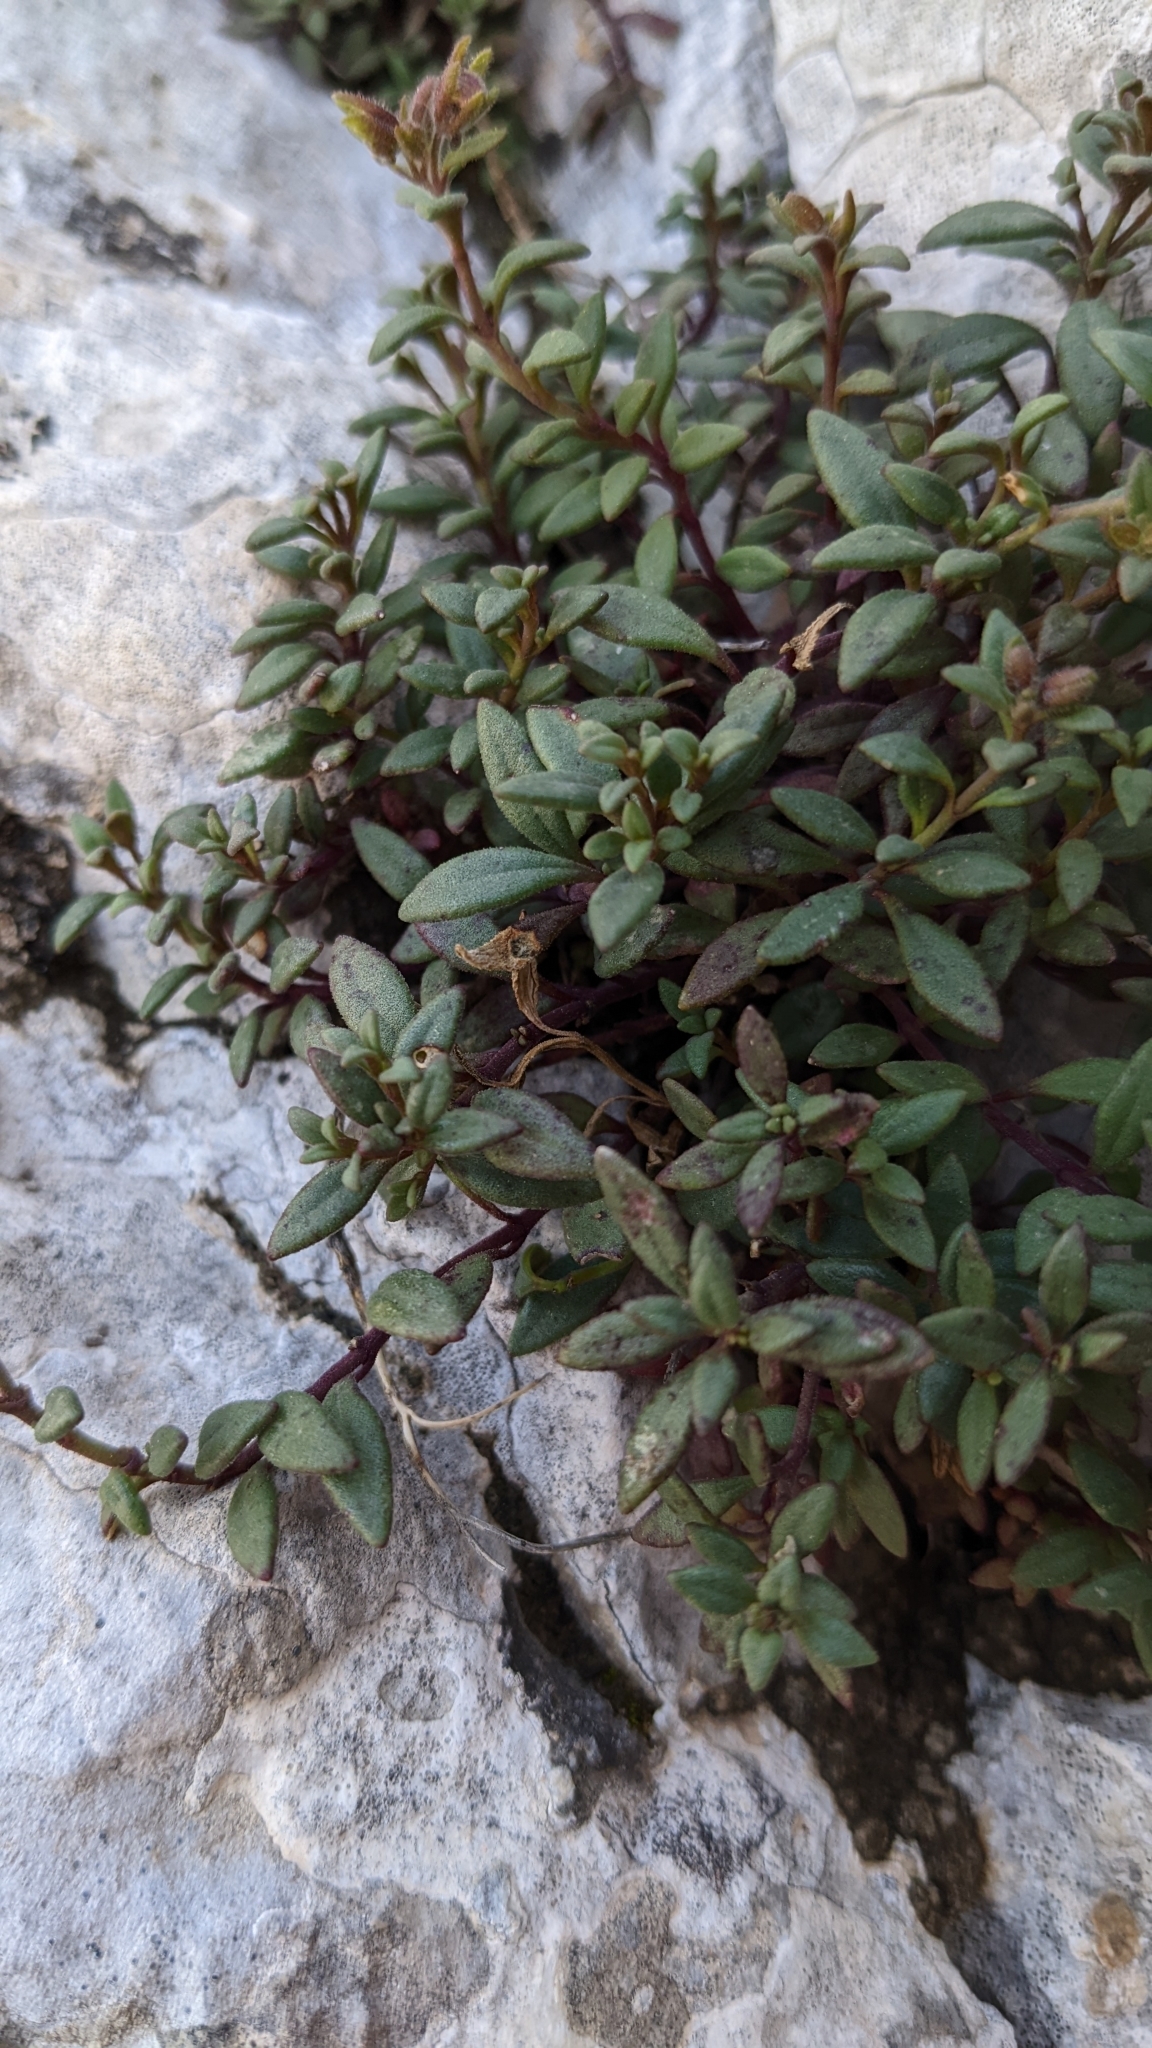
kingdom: Plantae
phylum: Tracheophyta
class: Magnoliopsida
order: Lamiales
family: Plantaginaceae
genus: Chaenorhinum
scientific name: Chaenorhinum origanifolium
